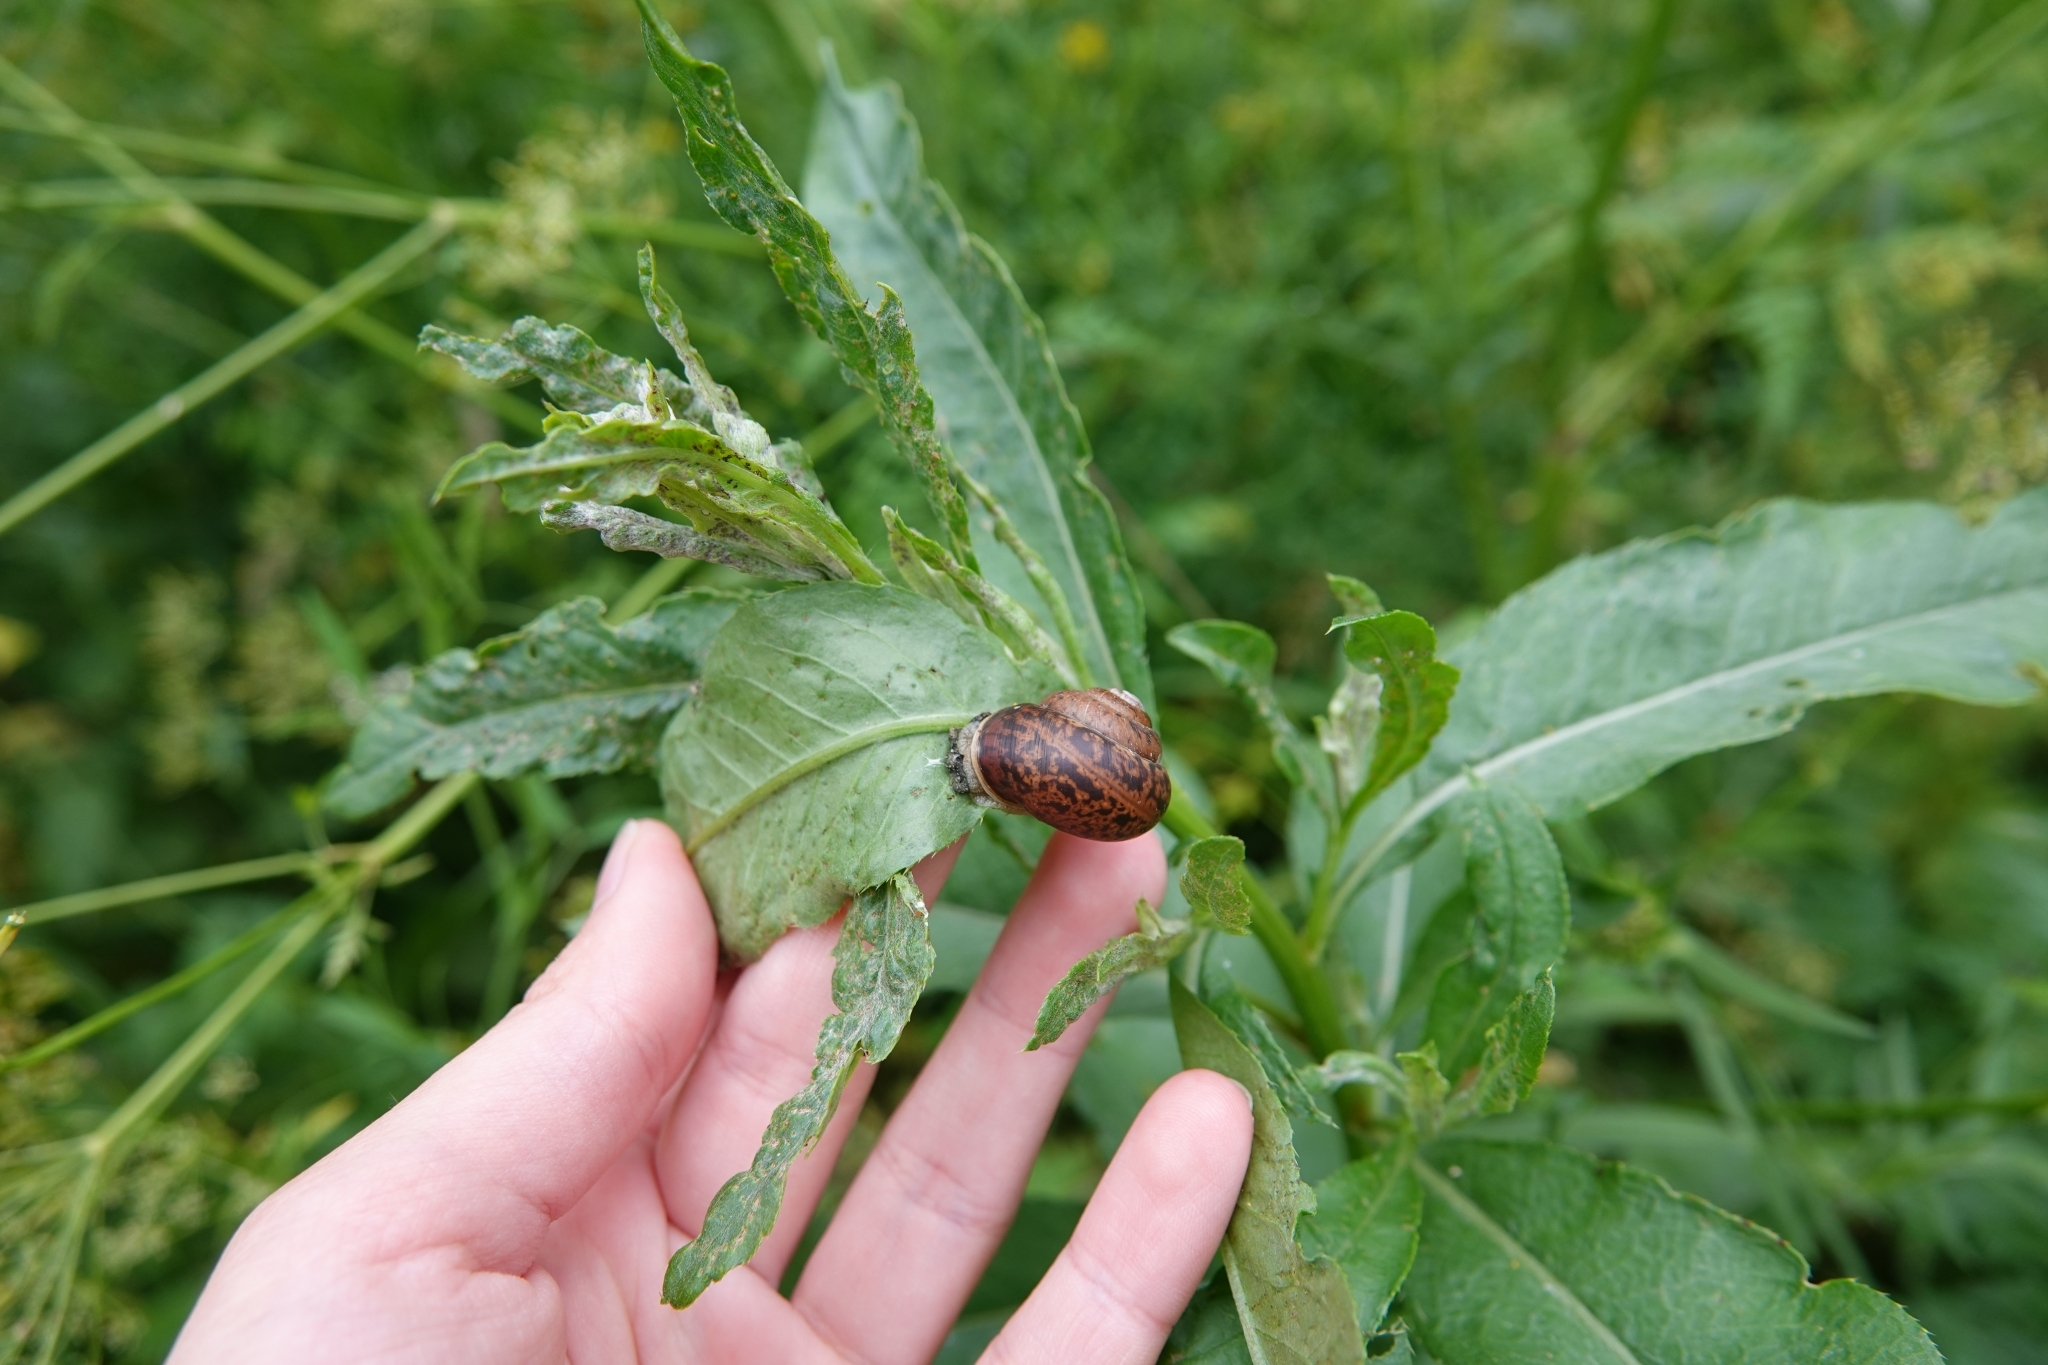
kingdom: Animalia
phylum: Mollusca
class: Gastropoda
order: Stylommatophora
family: Camaenidae
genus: Fruticicola
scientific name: Fruticicola fruticum
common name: Bush snail
